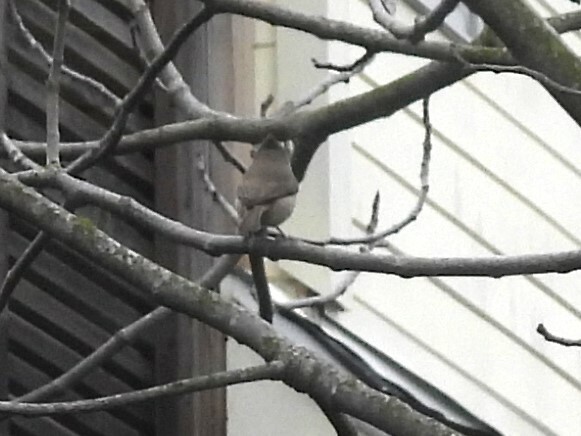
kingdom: Animalia
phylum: Chordata
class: Aves
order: Passeriformes
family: Paridae
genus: Baeolophus
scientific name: Baeolophus inornatus
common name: Oak titmouse
